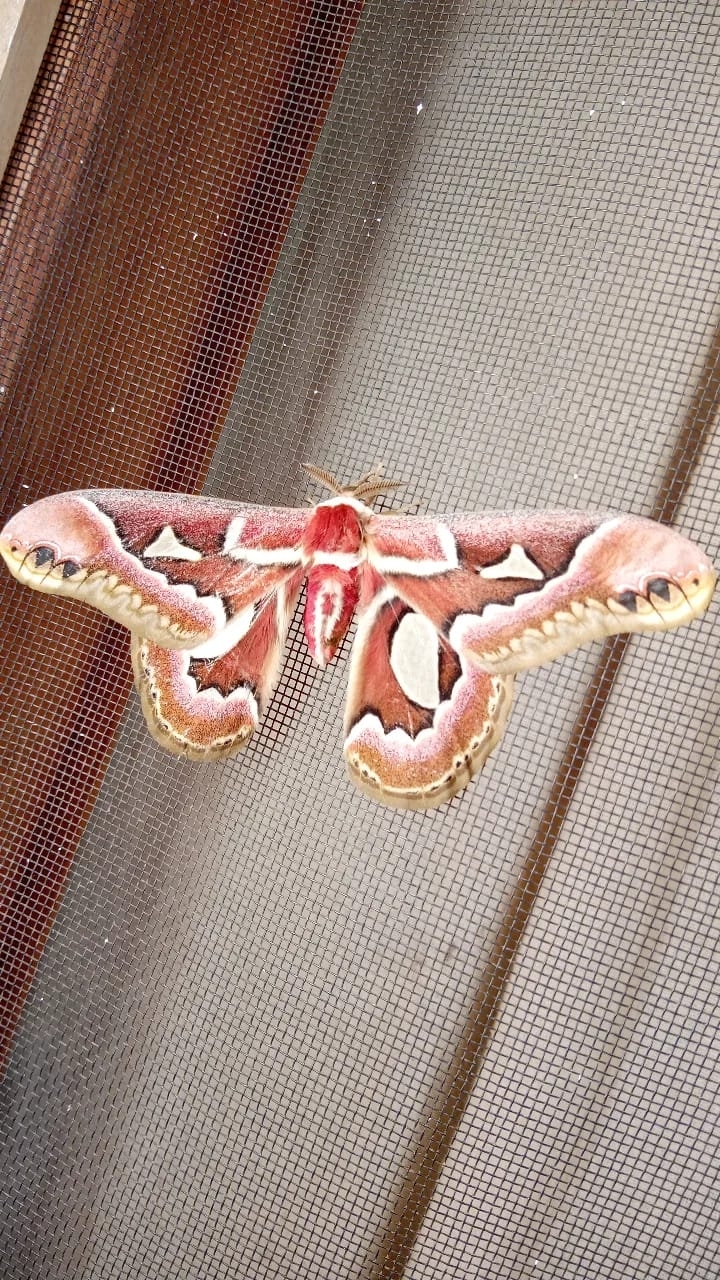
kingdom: Animalia
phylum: Arthropoda
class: Insecta
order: Lepidoptera
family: Saturniidae
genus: Rothschildia
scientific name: Rothschildia jacobaeae
